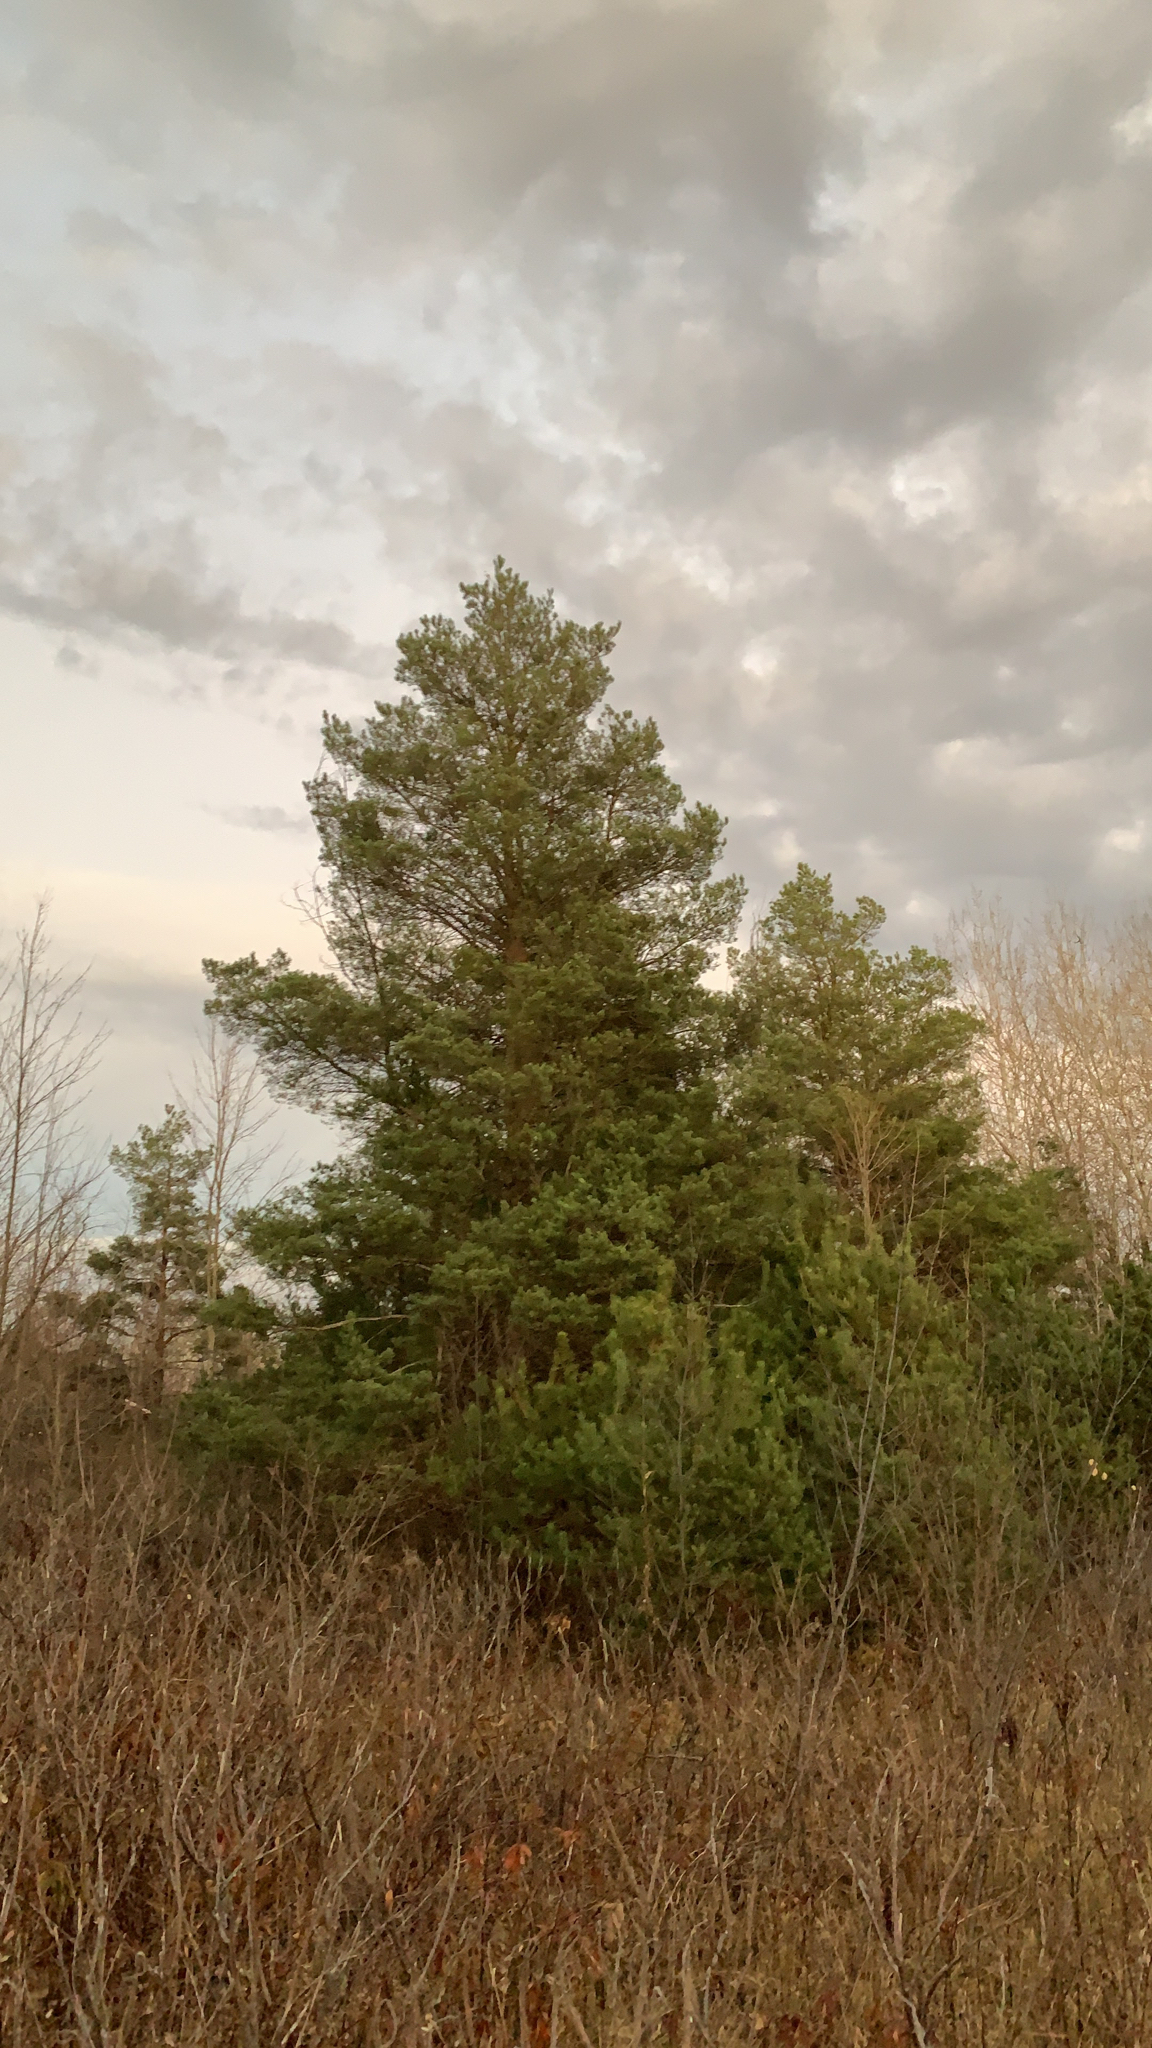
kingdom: Plantae
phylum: Tracheophyta
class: Pinopsida
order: Pinales
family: Pinaceae
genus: Pinus
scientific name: Pinus sylvestris
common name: Scots pine
